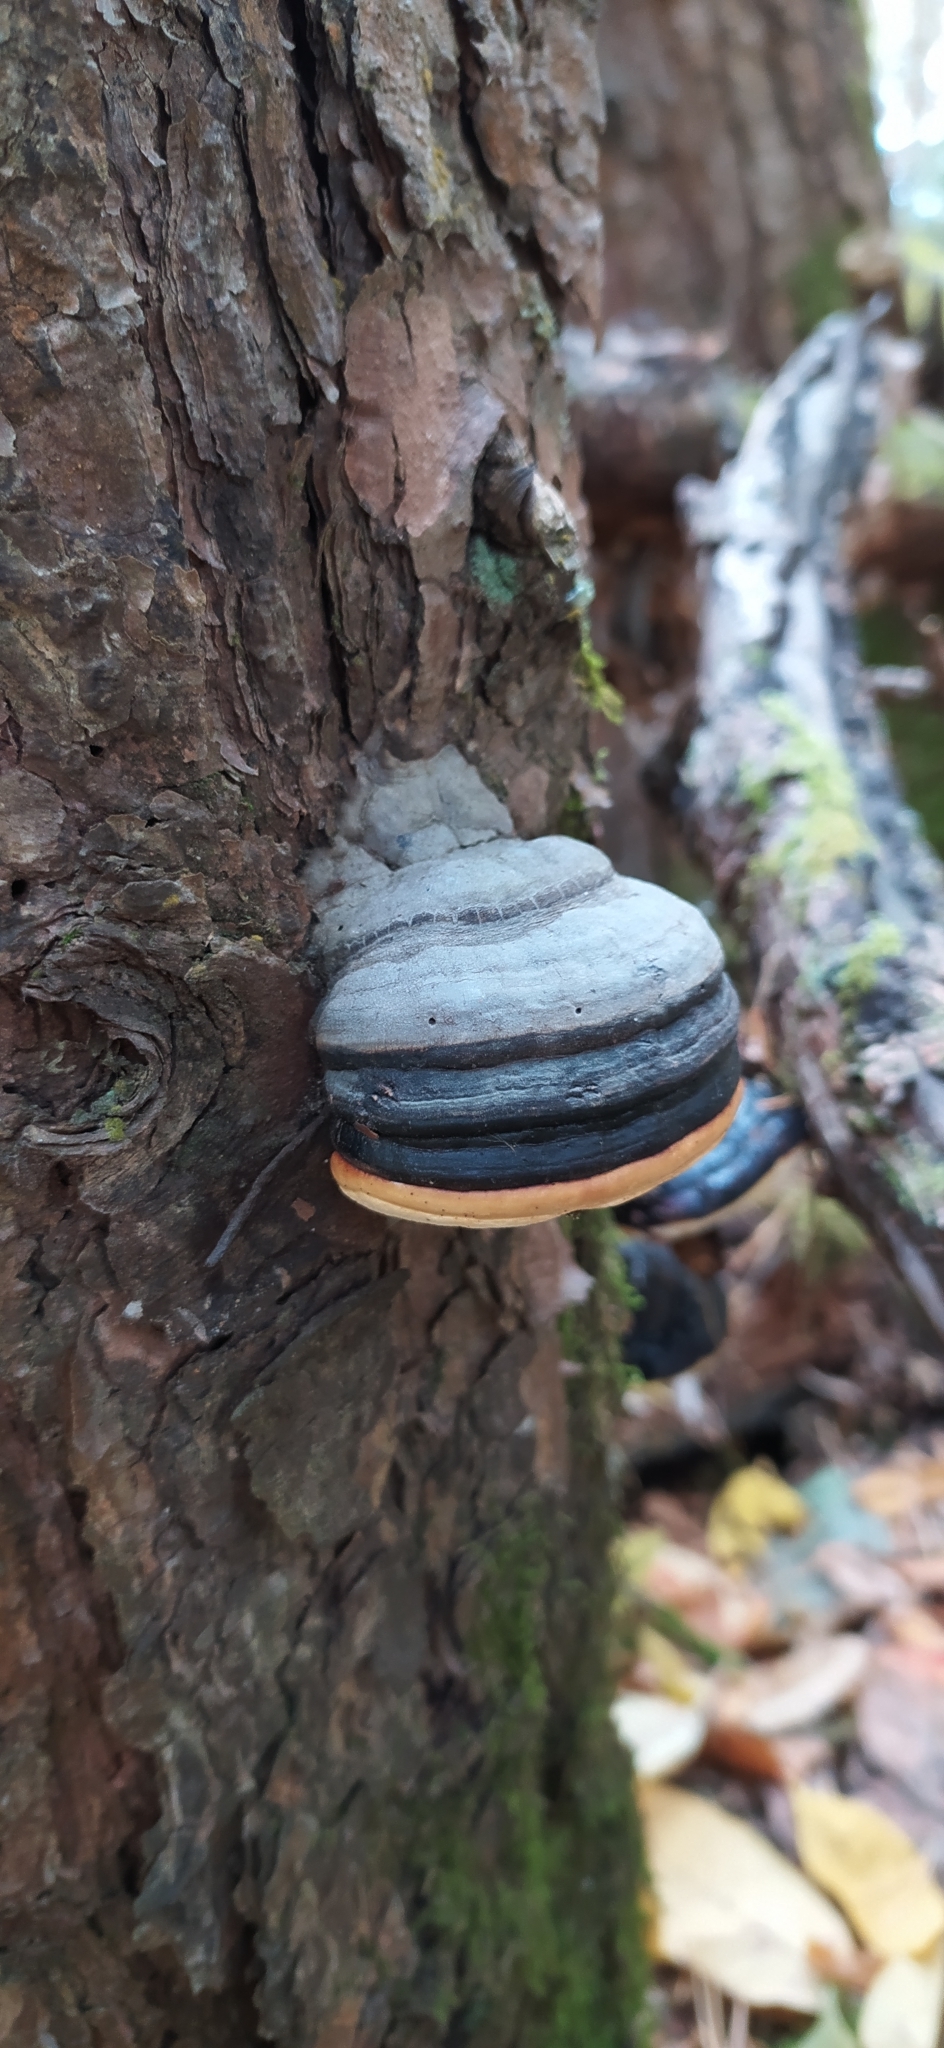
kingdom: Fungi
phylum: Basidiomycota
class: Agaricomycetes
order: Polyporales
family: Fomitopsidaceae
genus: Fomitopsis
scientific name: Fomitopsis pinicola
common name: Red-belted bracket
